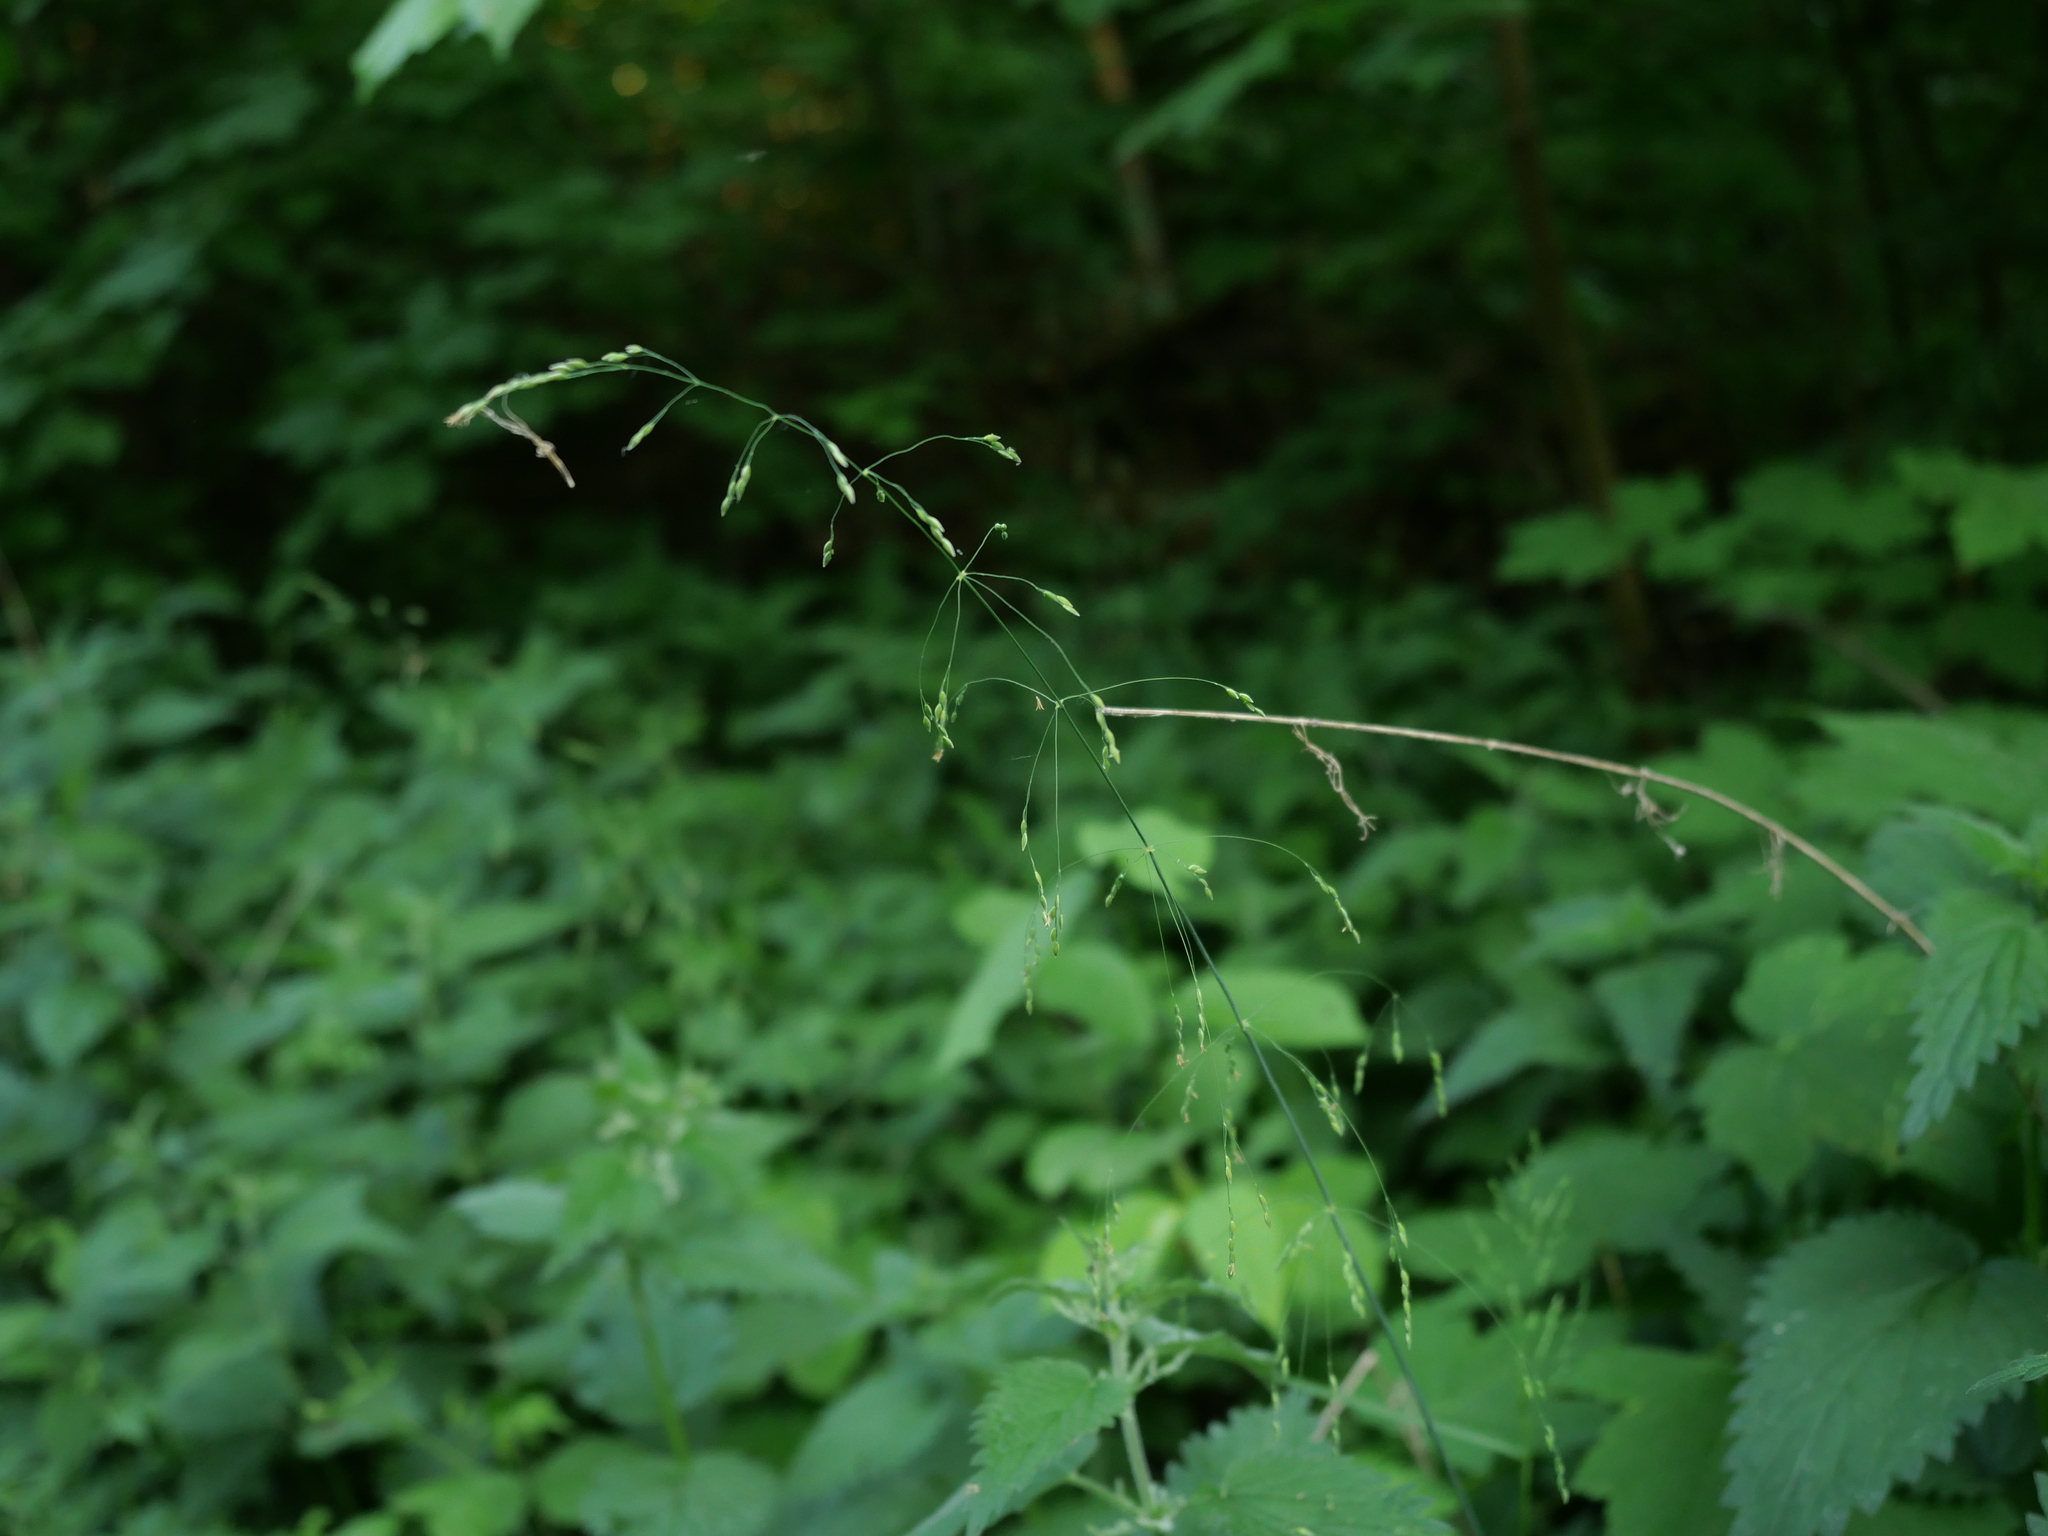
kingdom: Plantae
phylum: Tracheophyta
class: Liliopsida
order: Poales
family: Poaceae
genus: Milium
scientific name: Milium effusum
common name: Wood millet
